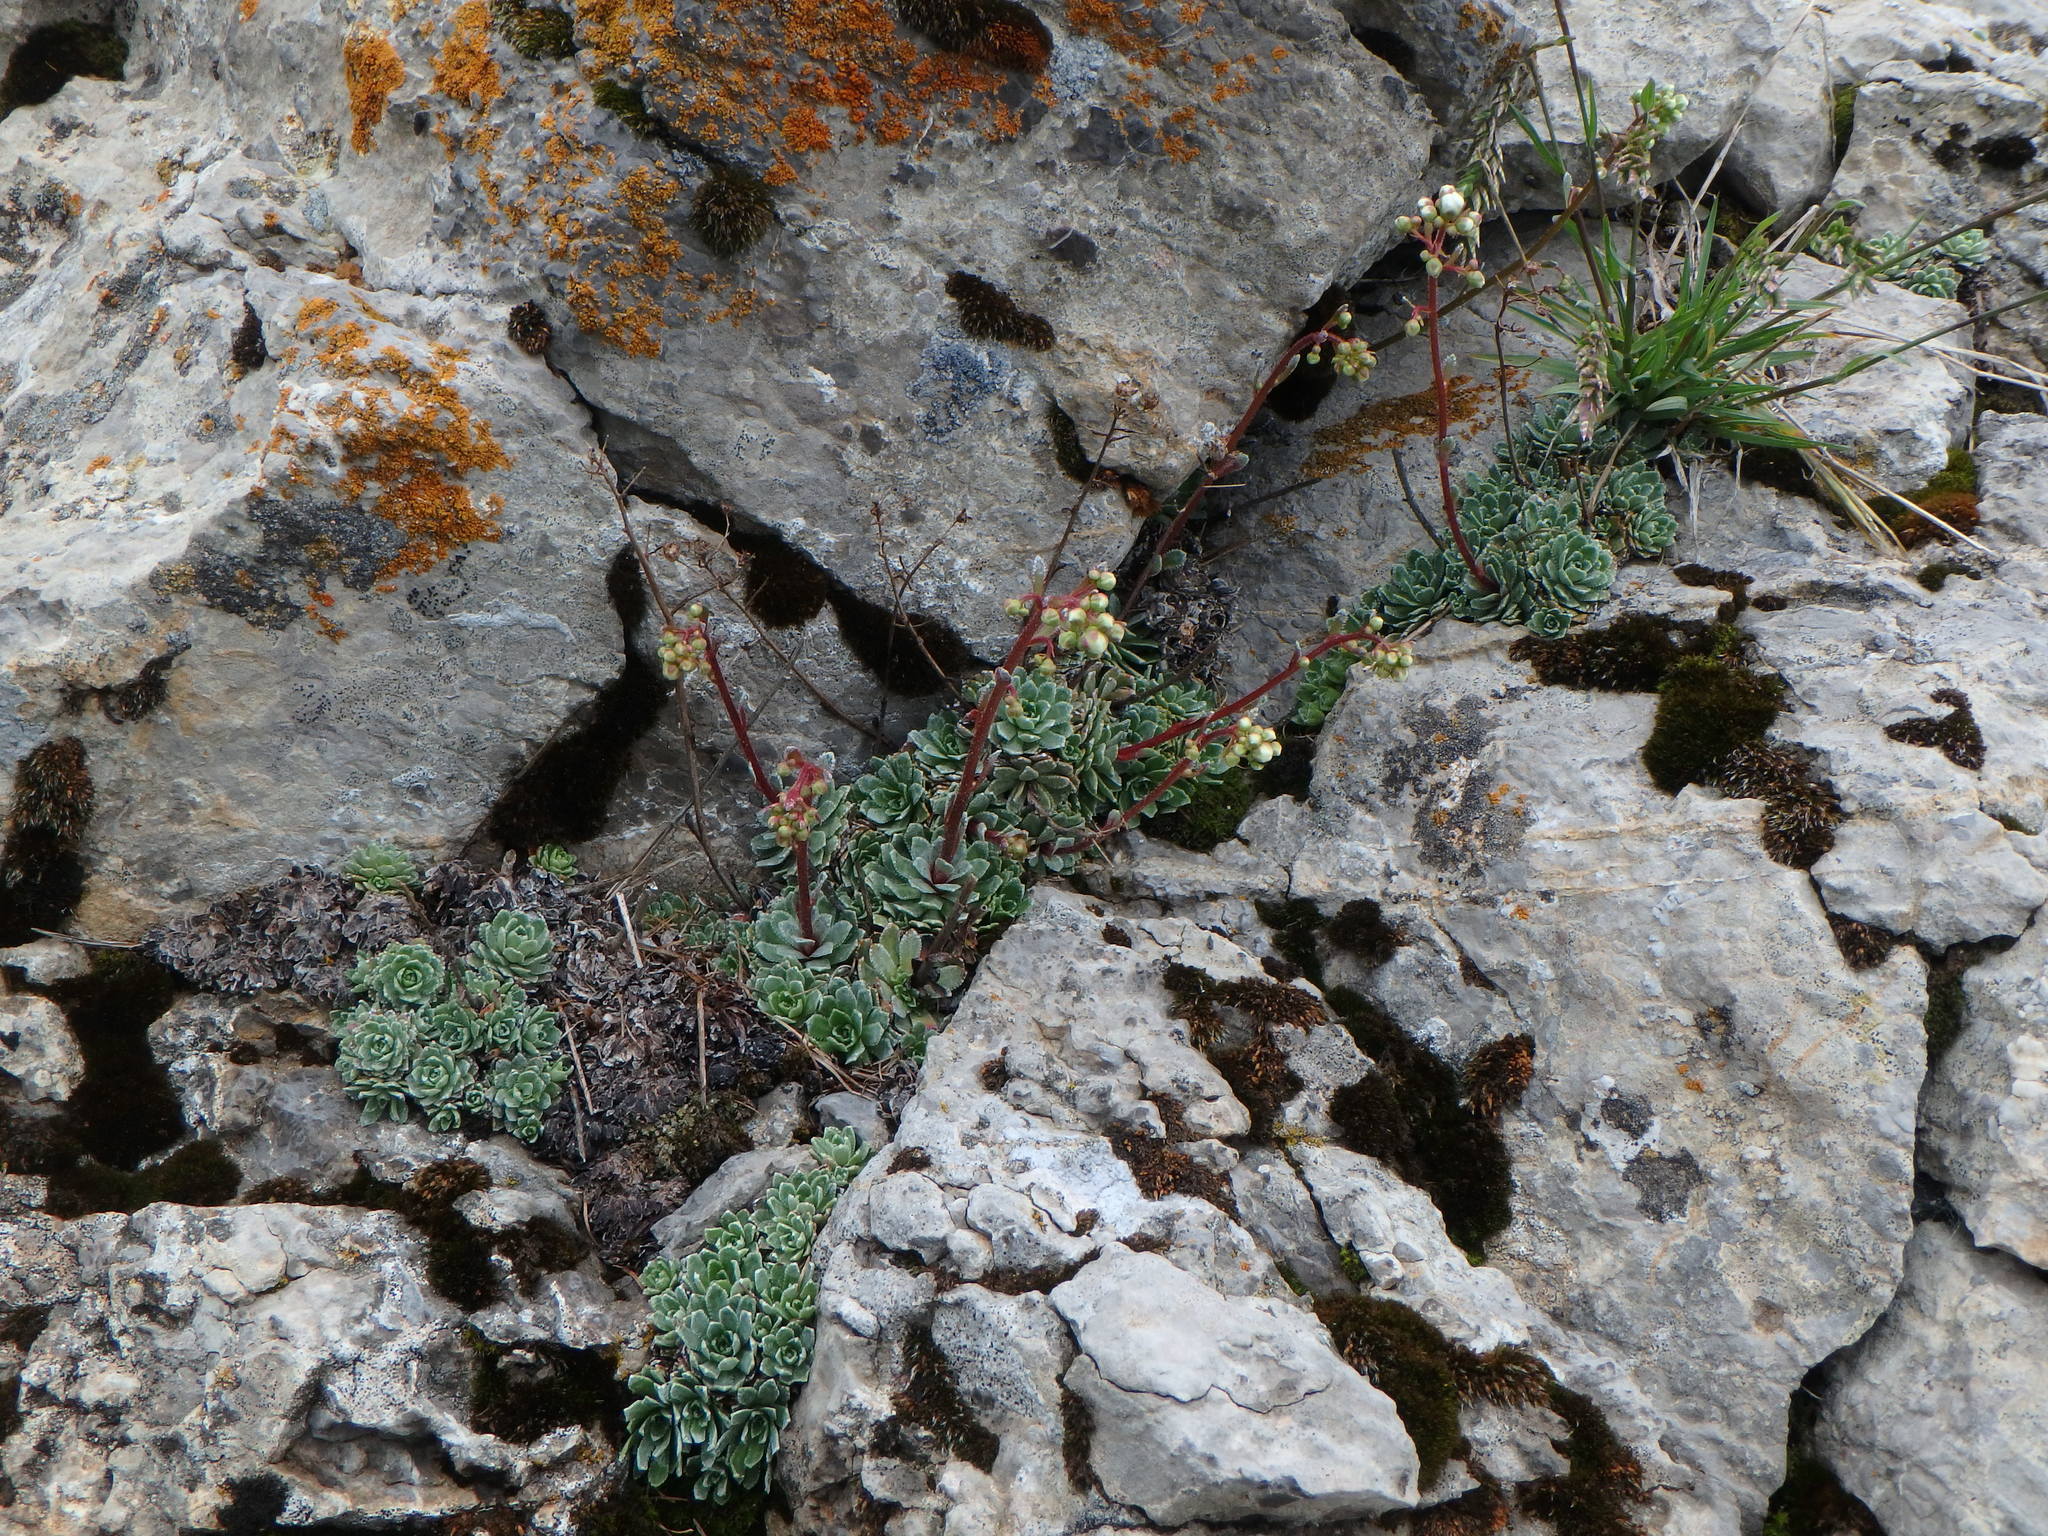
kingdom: Plantae
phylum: Tracheophyta
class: Magnoliopsida
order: Saxifragales
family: Saxifragaceae
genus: Saxifraga
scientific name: Saxifraga paniculata
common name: Livelong saxifrage
